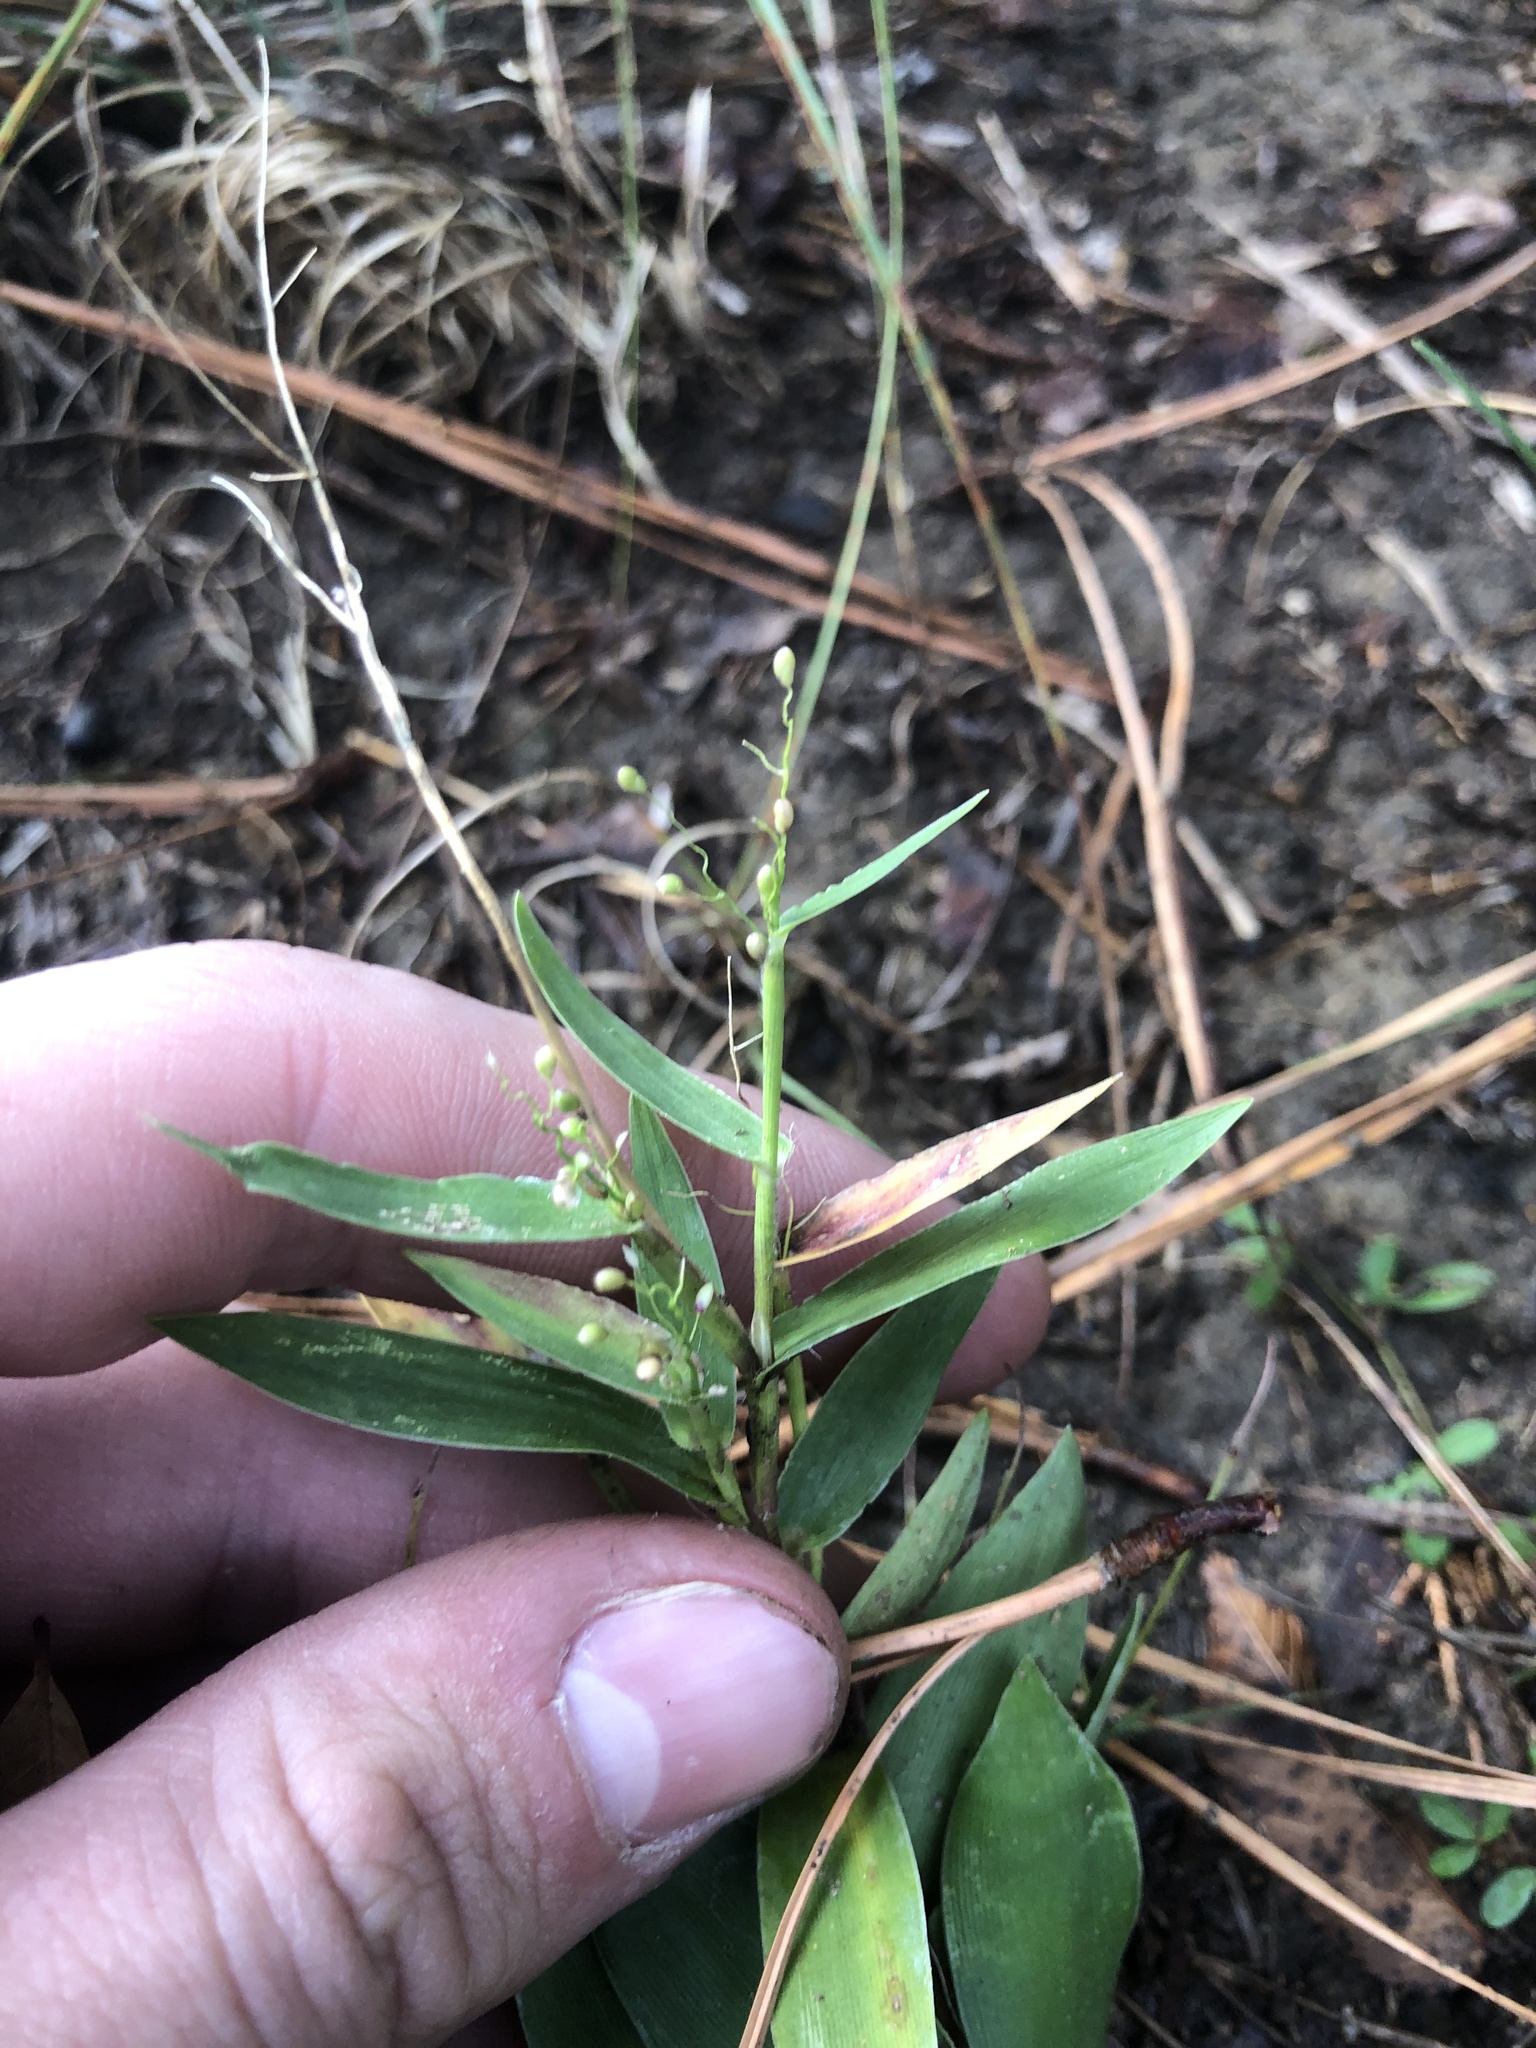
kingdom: Plantae
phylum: Tracheophyta
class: Liliopsida
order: Poales
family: Poaceae
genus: Dichanthelium
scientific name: Dichanthelium sphaerocarpon
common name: Round-fruited panicgrass
